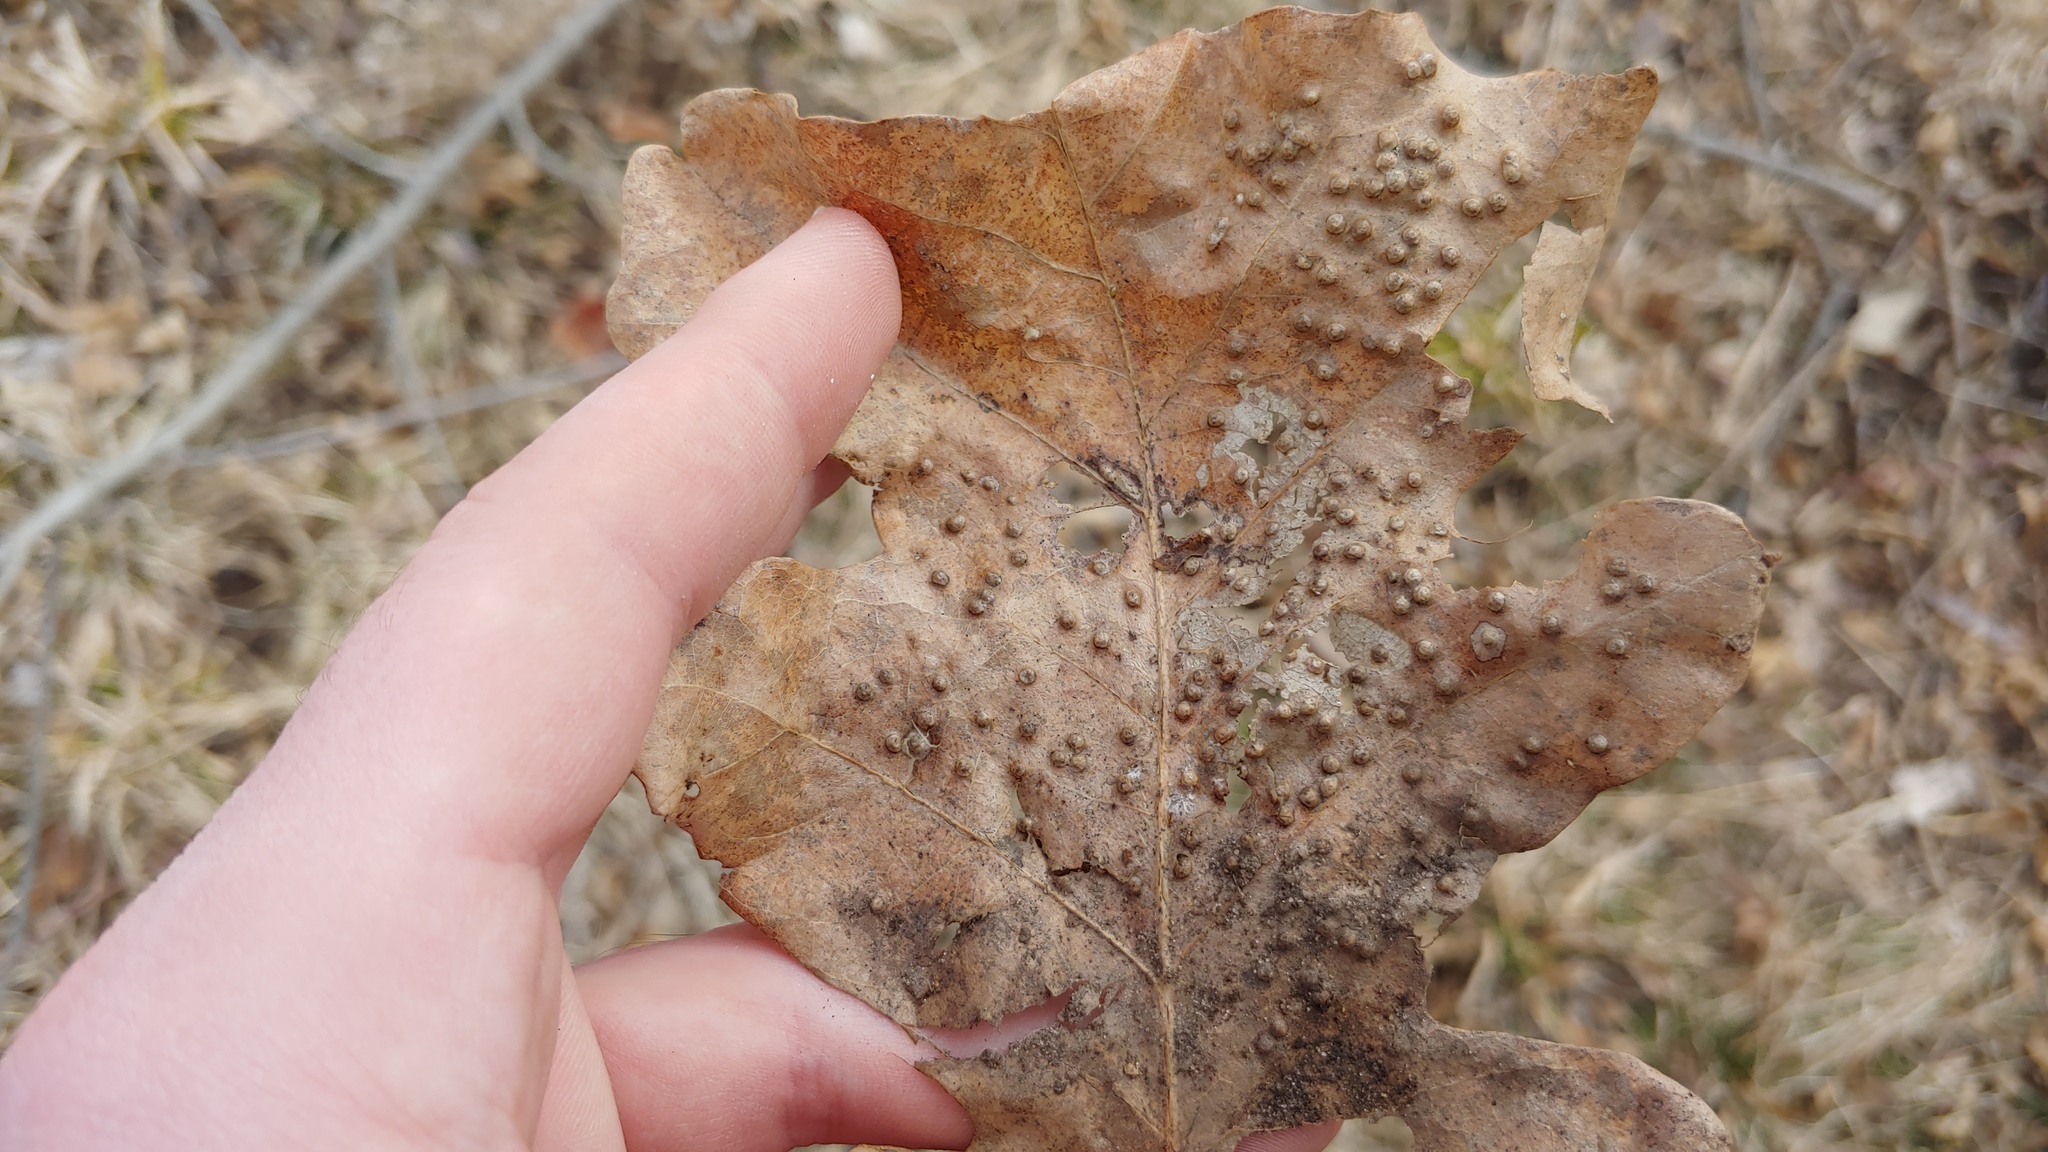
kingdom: Animalia
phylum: Arthropoda
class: Insecta
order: Hymenoptera
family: Cynipidae
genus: Neuroterus
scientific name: Neuroterus saltarius
